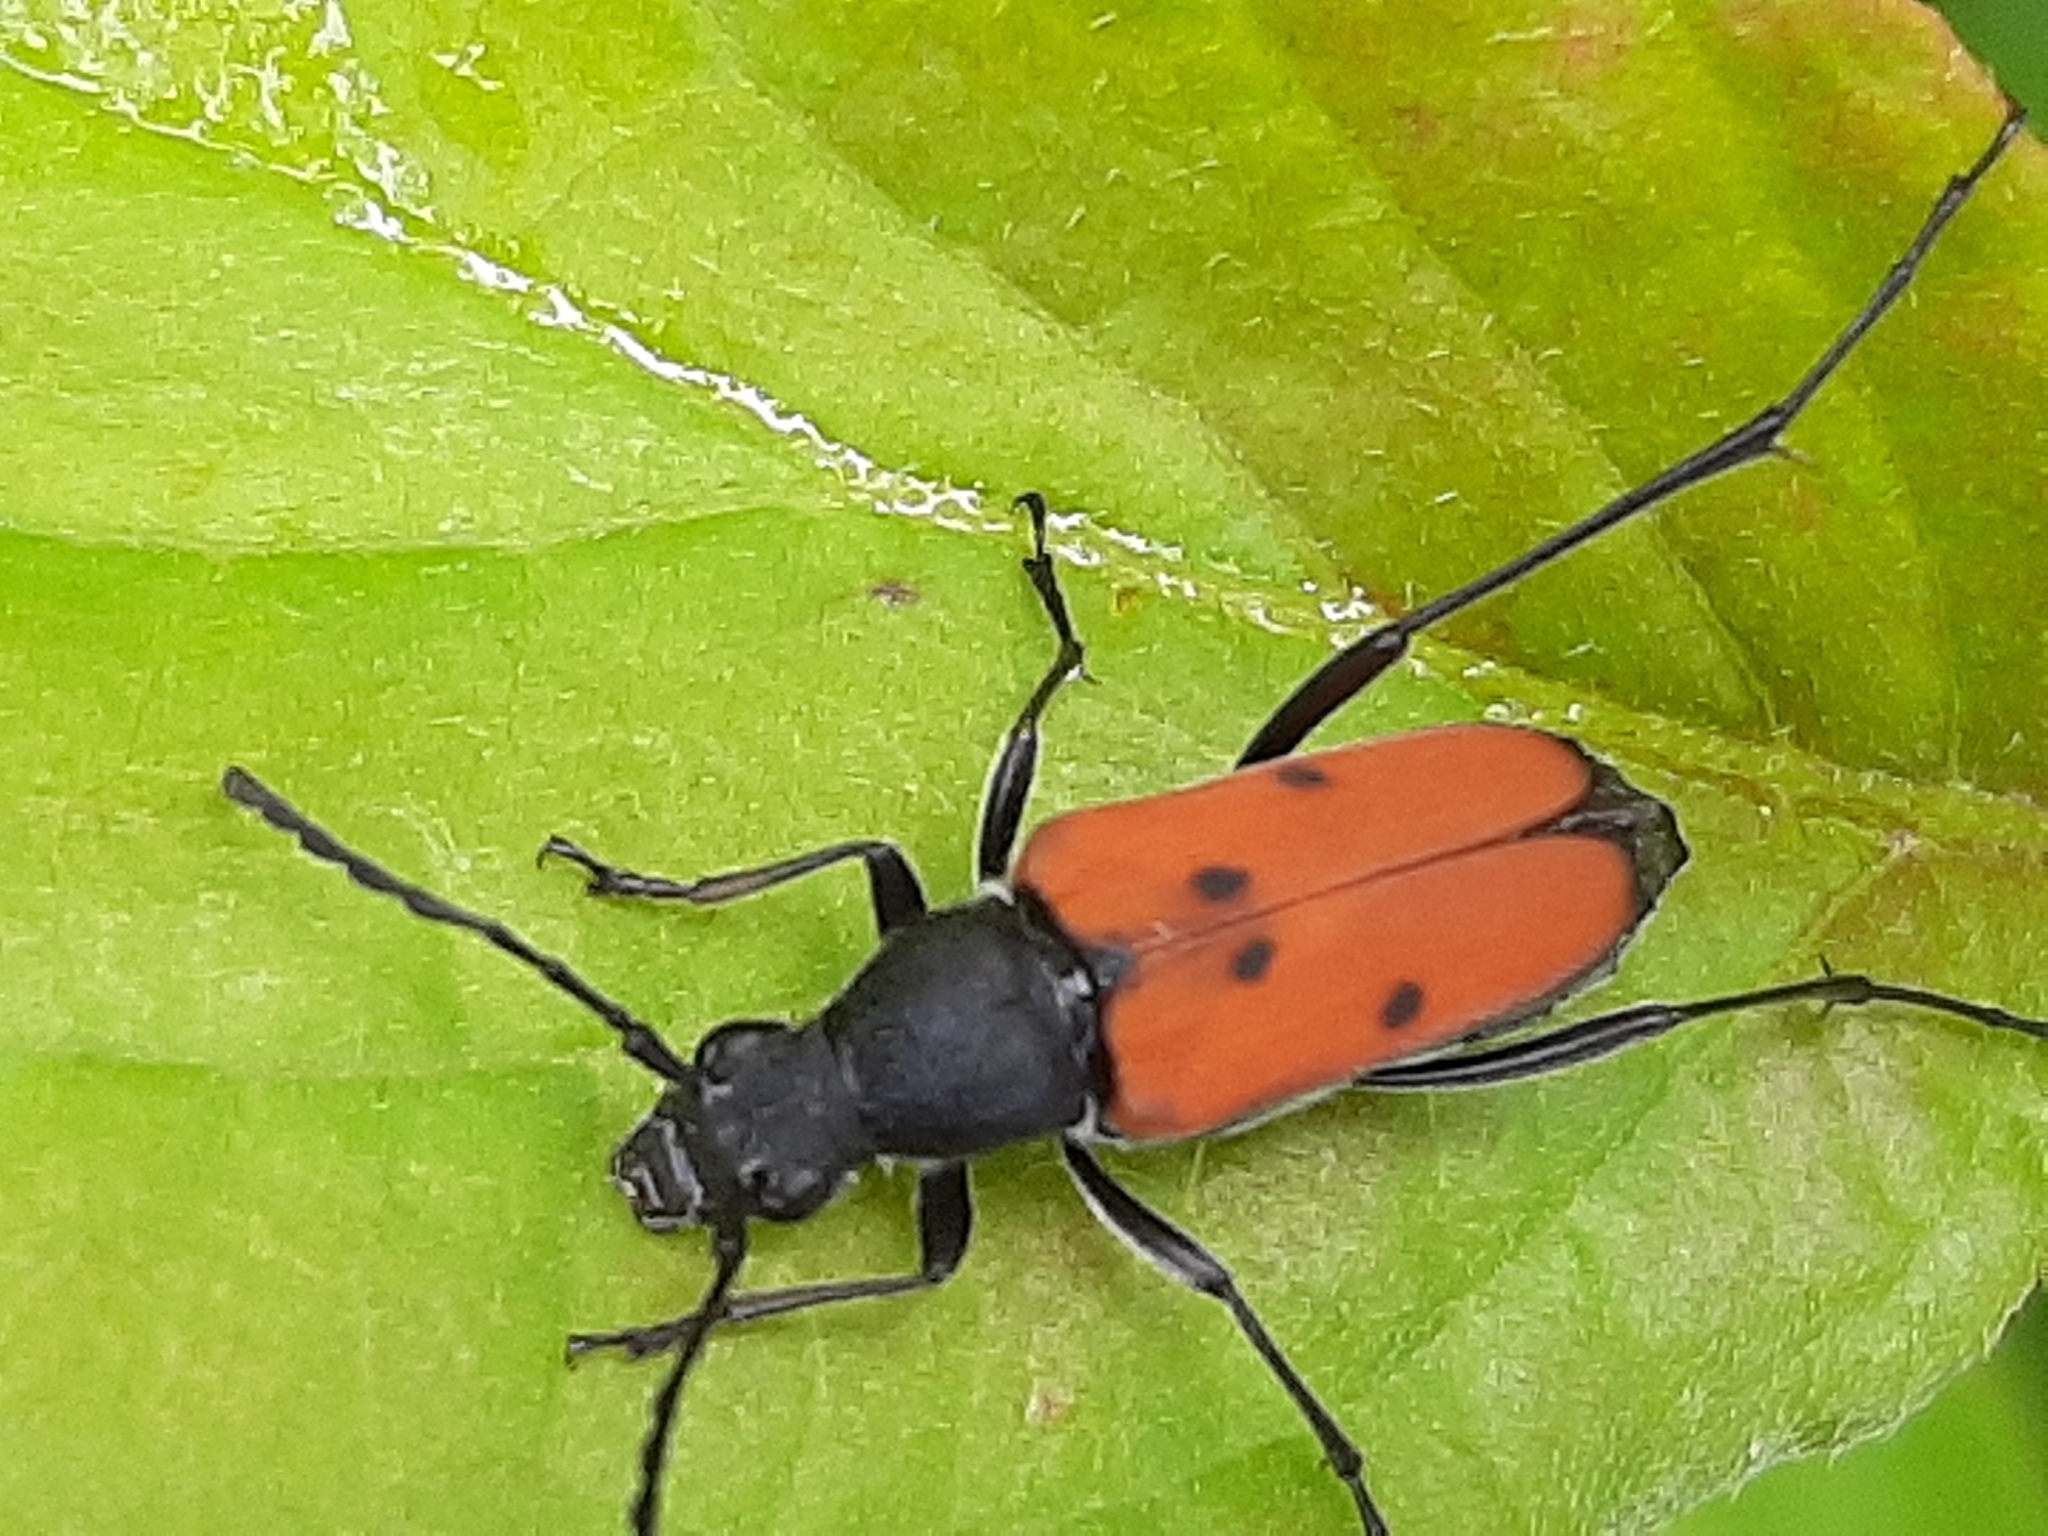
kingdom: Animalia
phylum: Arthropoda
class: Insecta
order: Coleoptera
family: Cerambycidae
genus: Anastrangalia
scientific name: Anastrangalia laetifica
